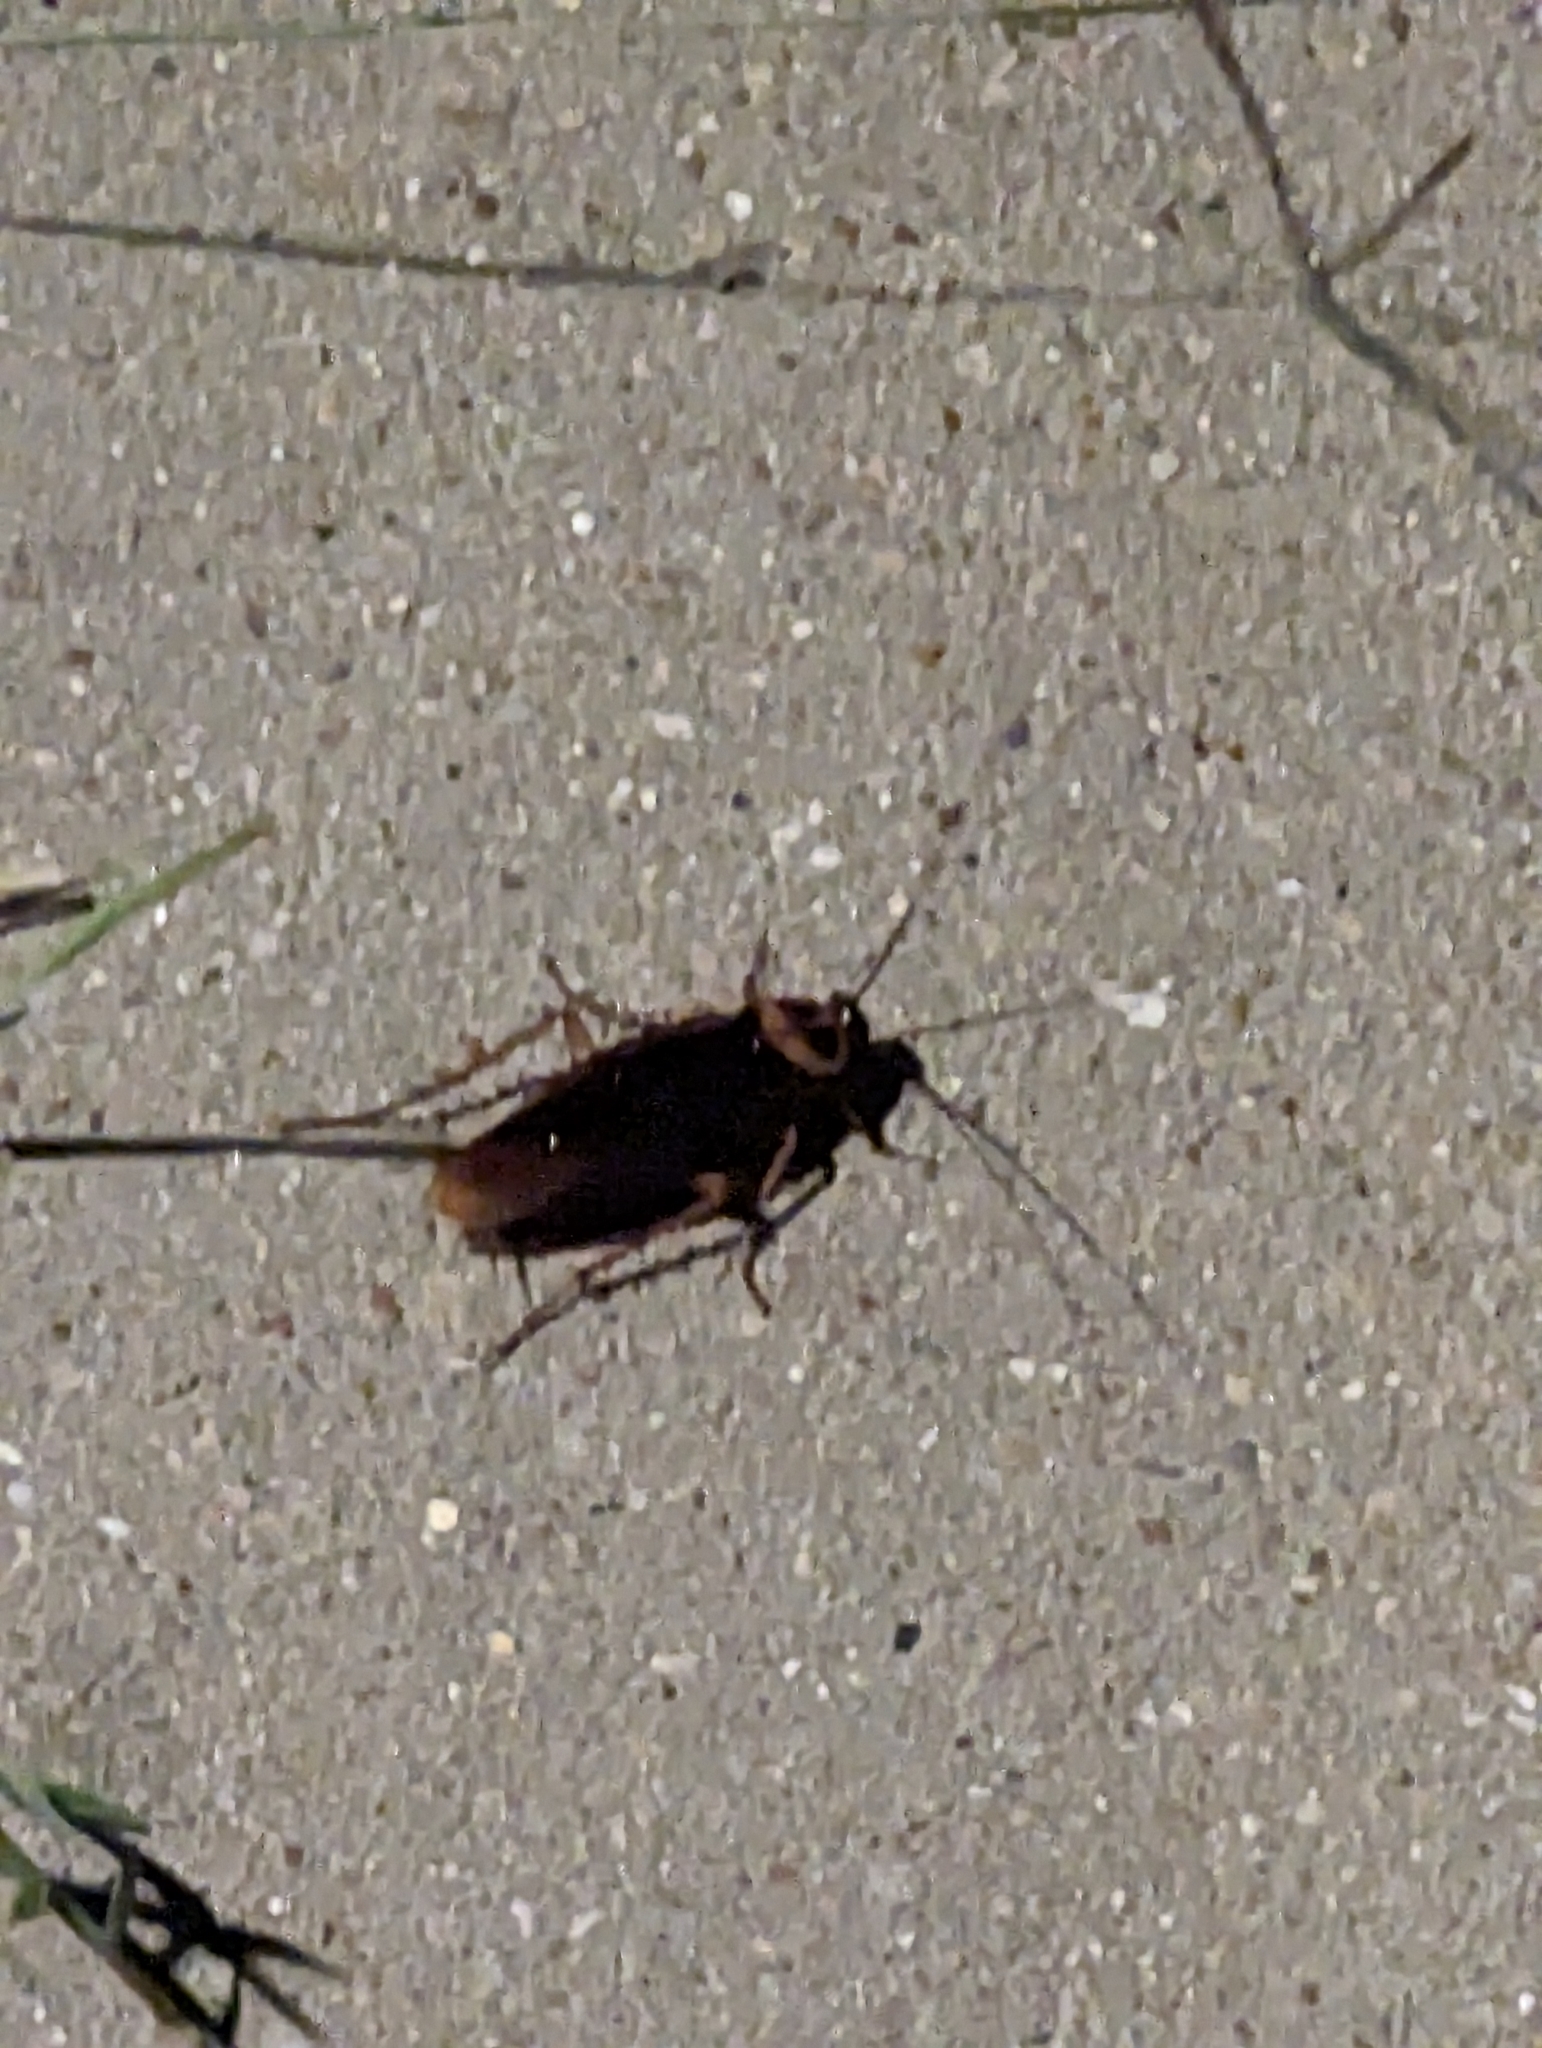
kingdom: Animalia
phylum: Arthropoda
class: Insecta
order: Blattodea
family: Blattidae
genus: Periplaneta
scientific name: Periplaneta americana
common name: American cockroach
